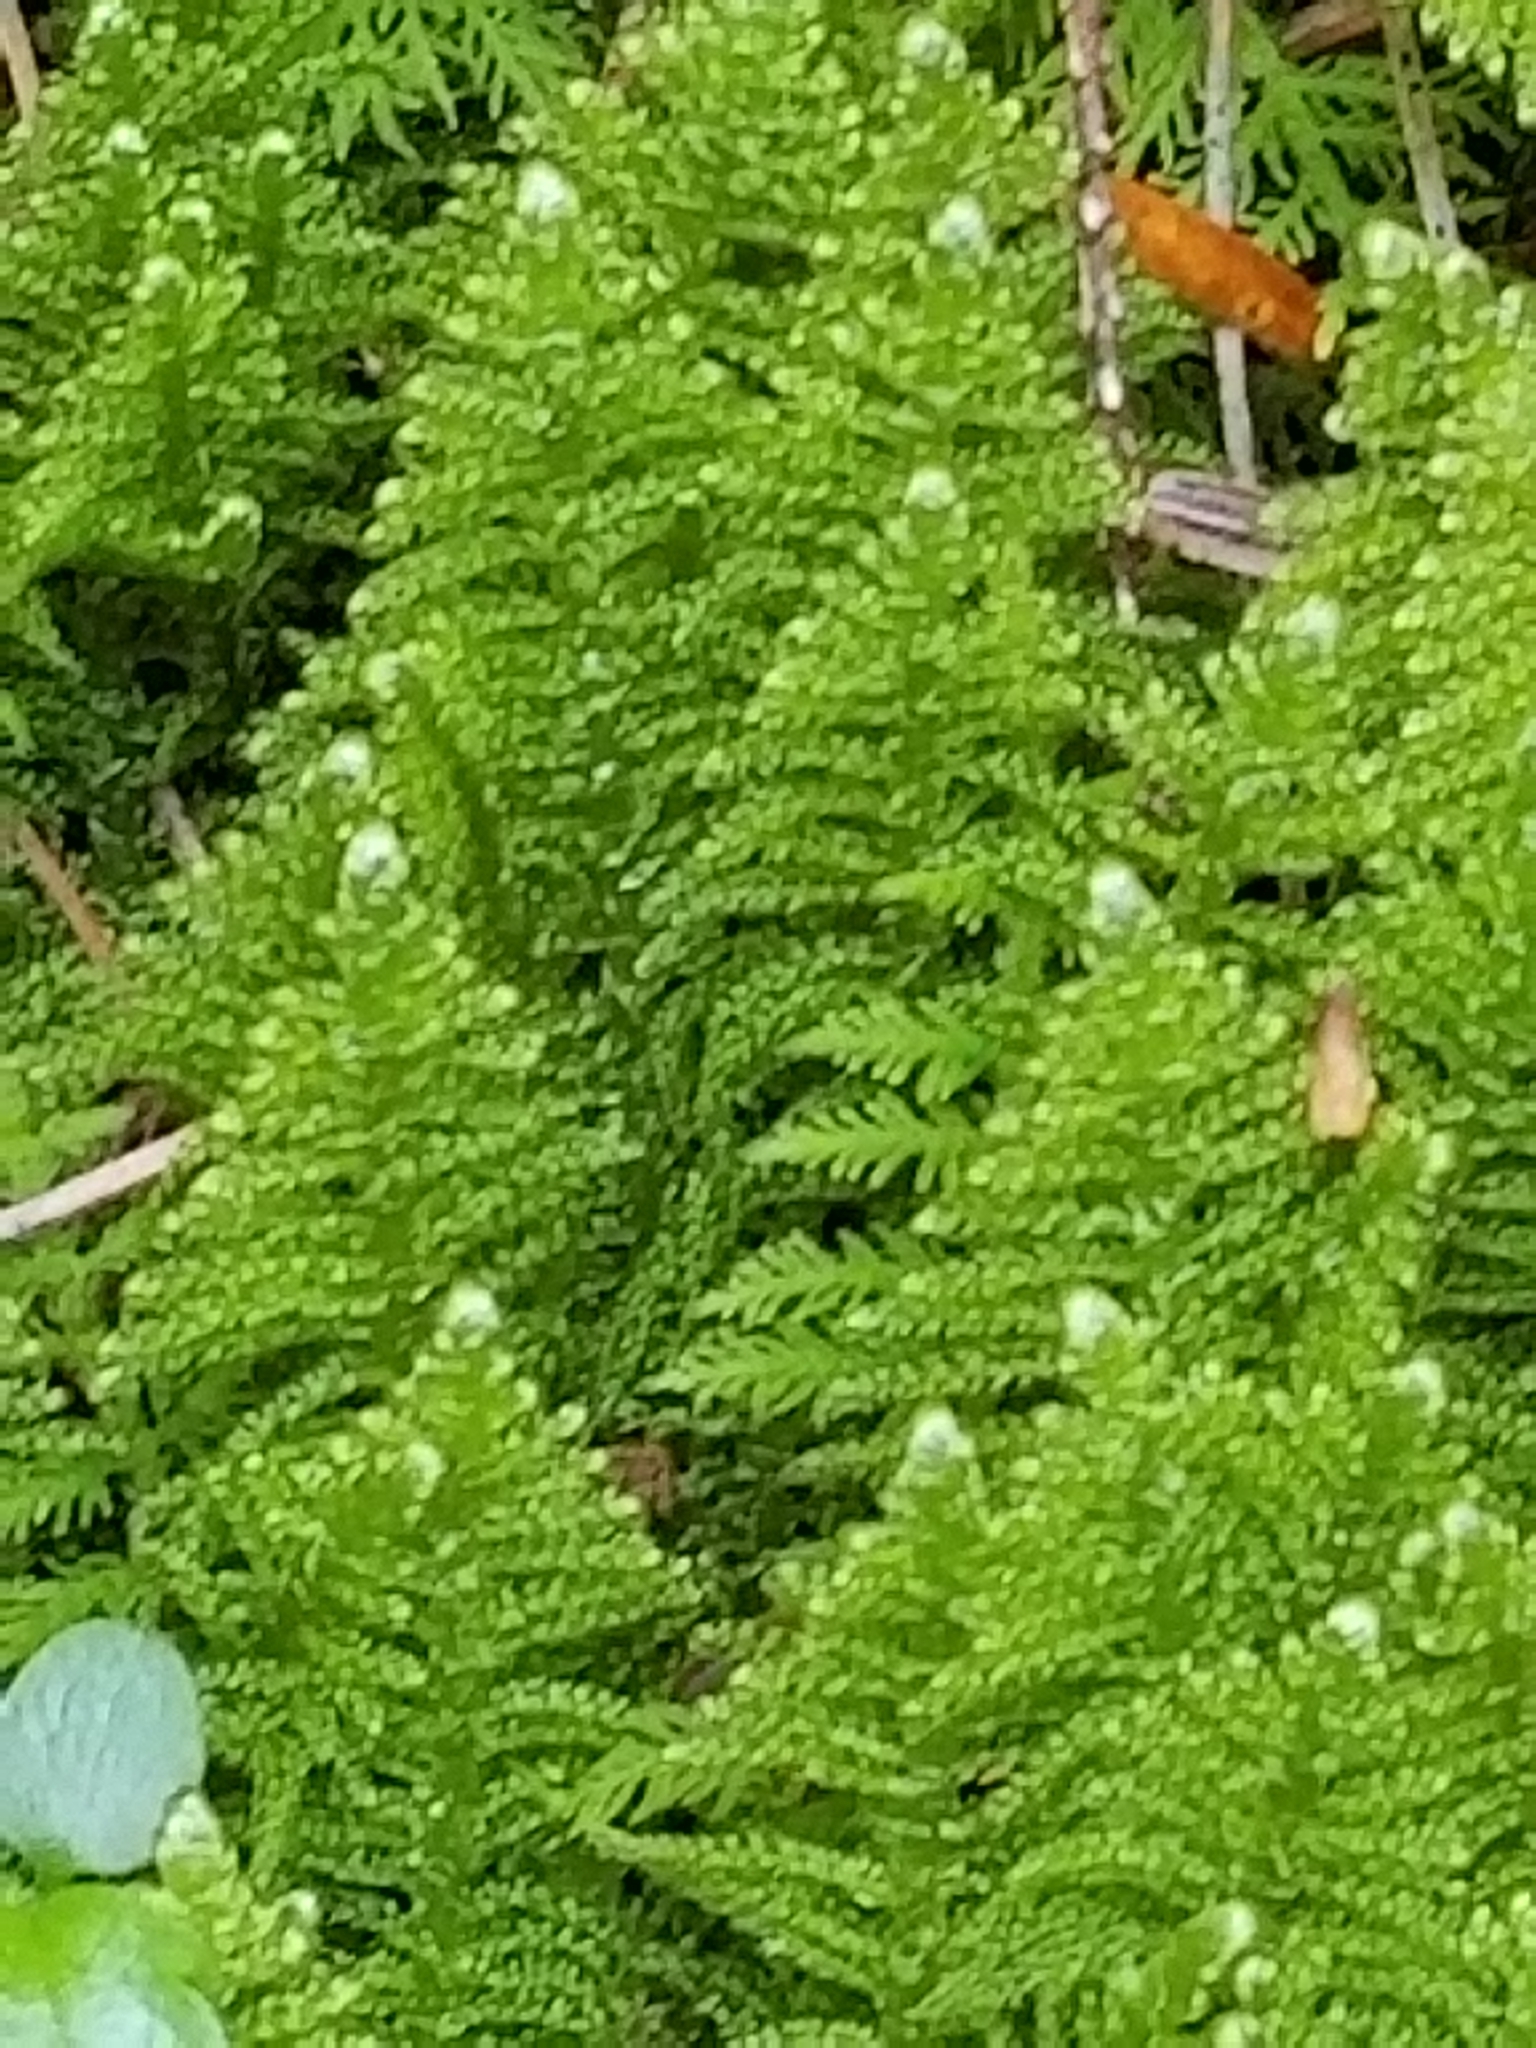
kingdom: Plantae
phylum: Bryophyta
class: Bryopsida
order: Hypnales
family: Pylaisiaceae
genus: Ptilium
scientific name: Ptilium crista-castrensis
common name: Knight's plume moss
